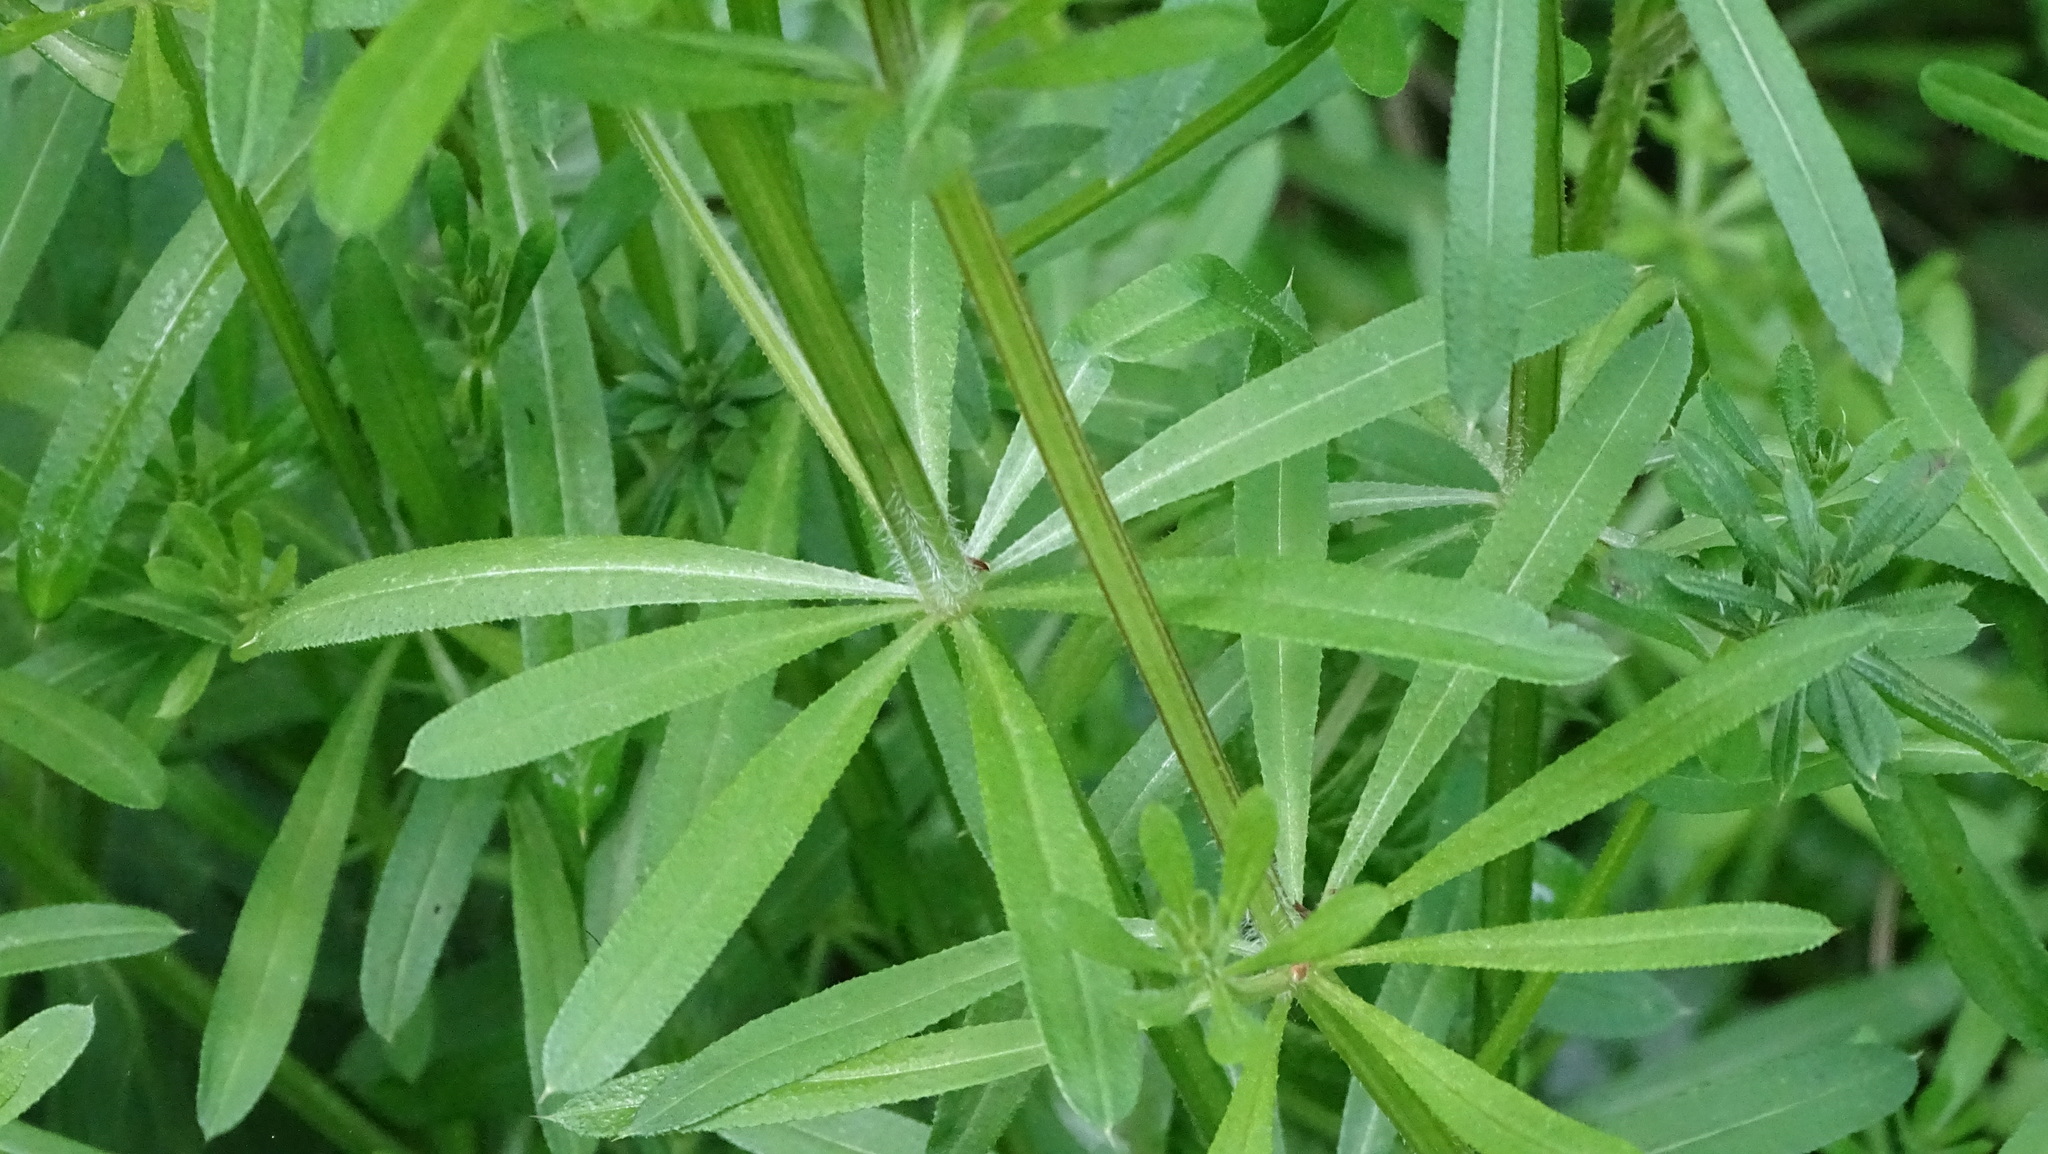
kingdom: Plantae
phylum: Tracheophyta
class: Magnoliopsida
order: Gentianales
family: Rubiaceae
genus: Galium
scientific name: Galium aparine
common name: Cleavers
